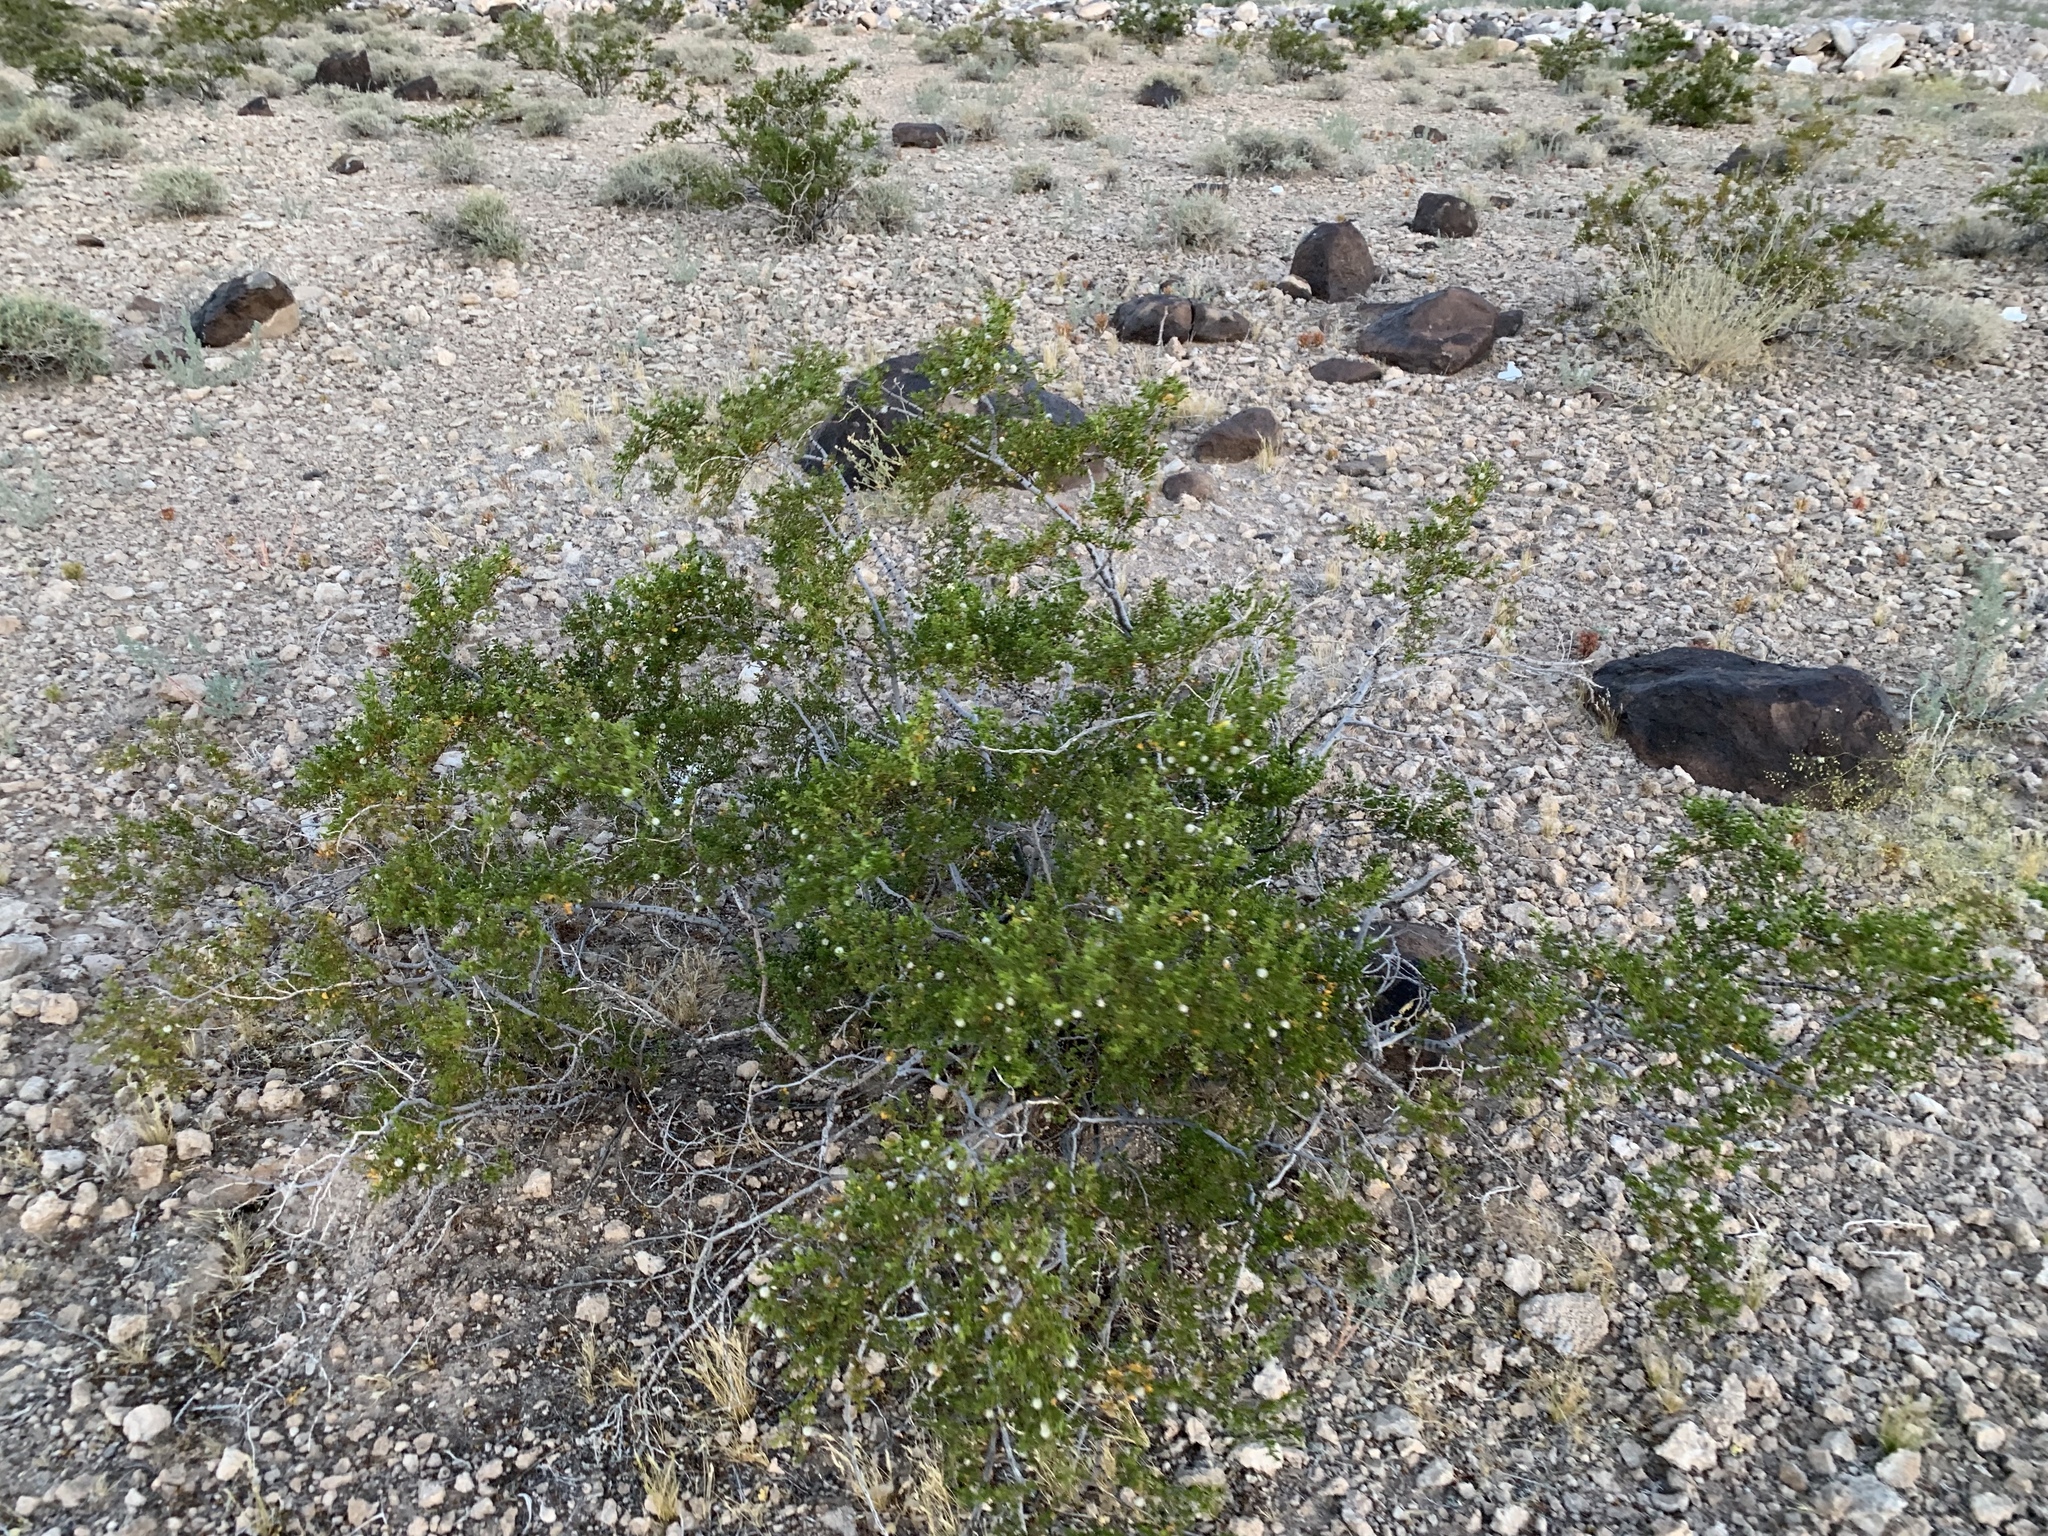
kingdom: Plantae
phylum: Tracheophyta
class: Magnoliopsida
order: Zygophyllales
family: Zygophyllaceae
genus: Larrea
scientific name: Larrea tridentata
